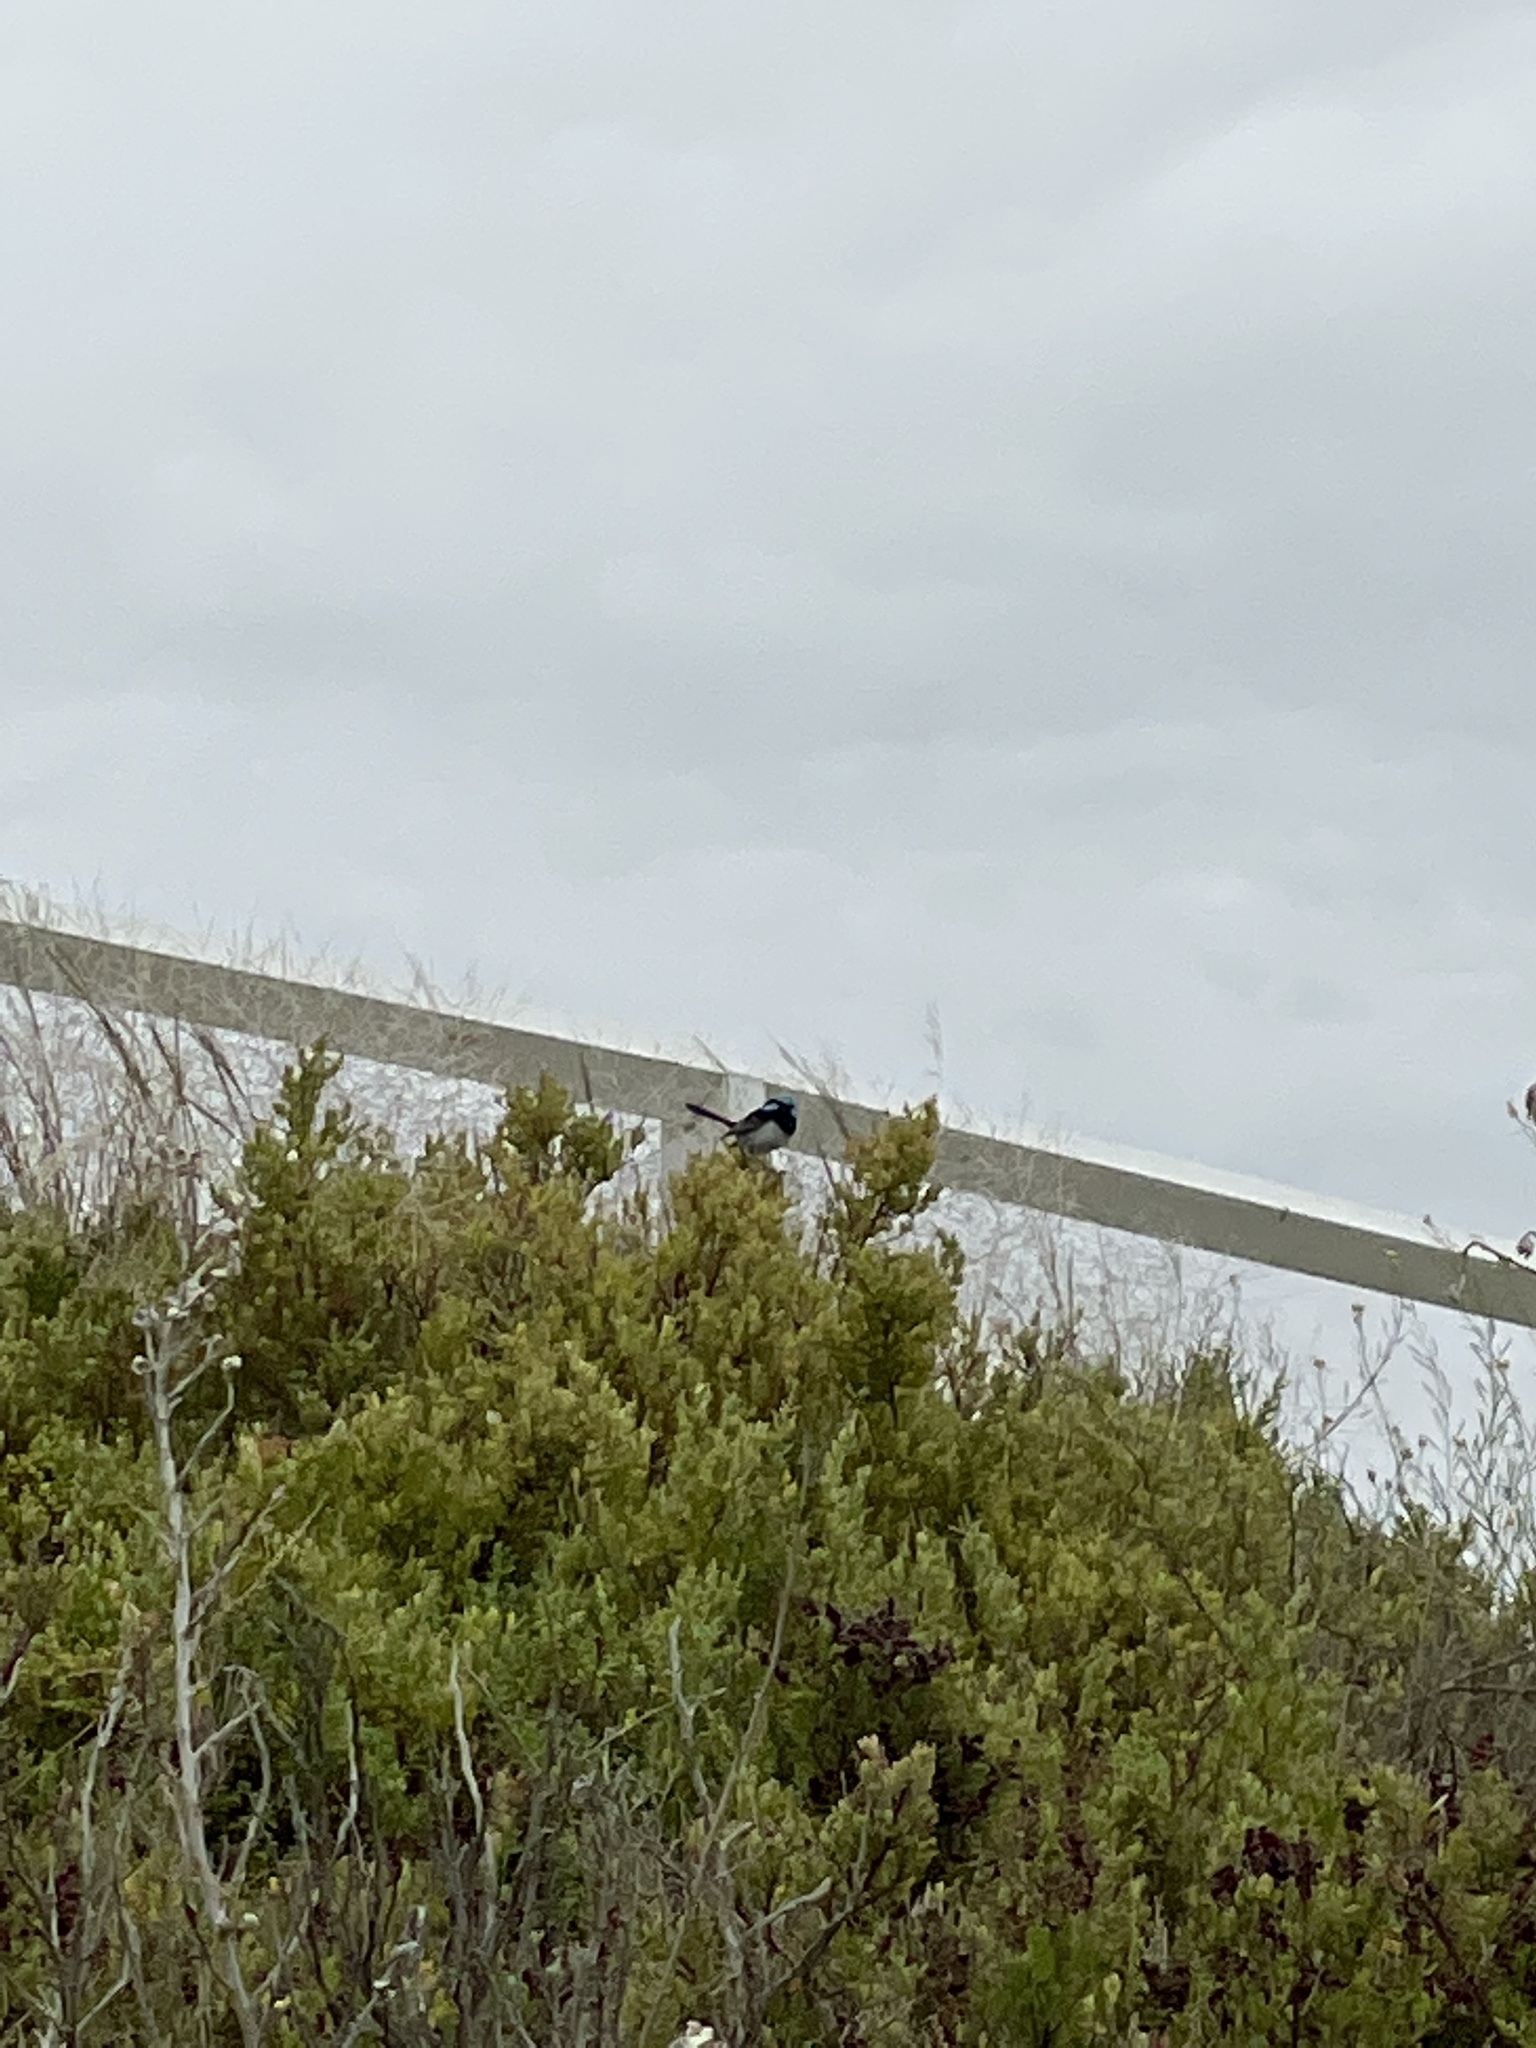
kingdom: Animalia
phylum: Chordata
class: Aves
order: Passeriformes
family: Maluridae
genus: Malurus
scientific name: Malurus cyaneus
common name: Superb fairywren
